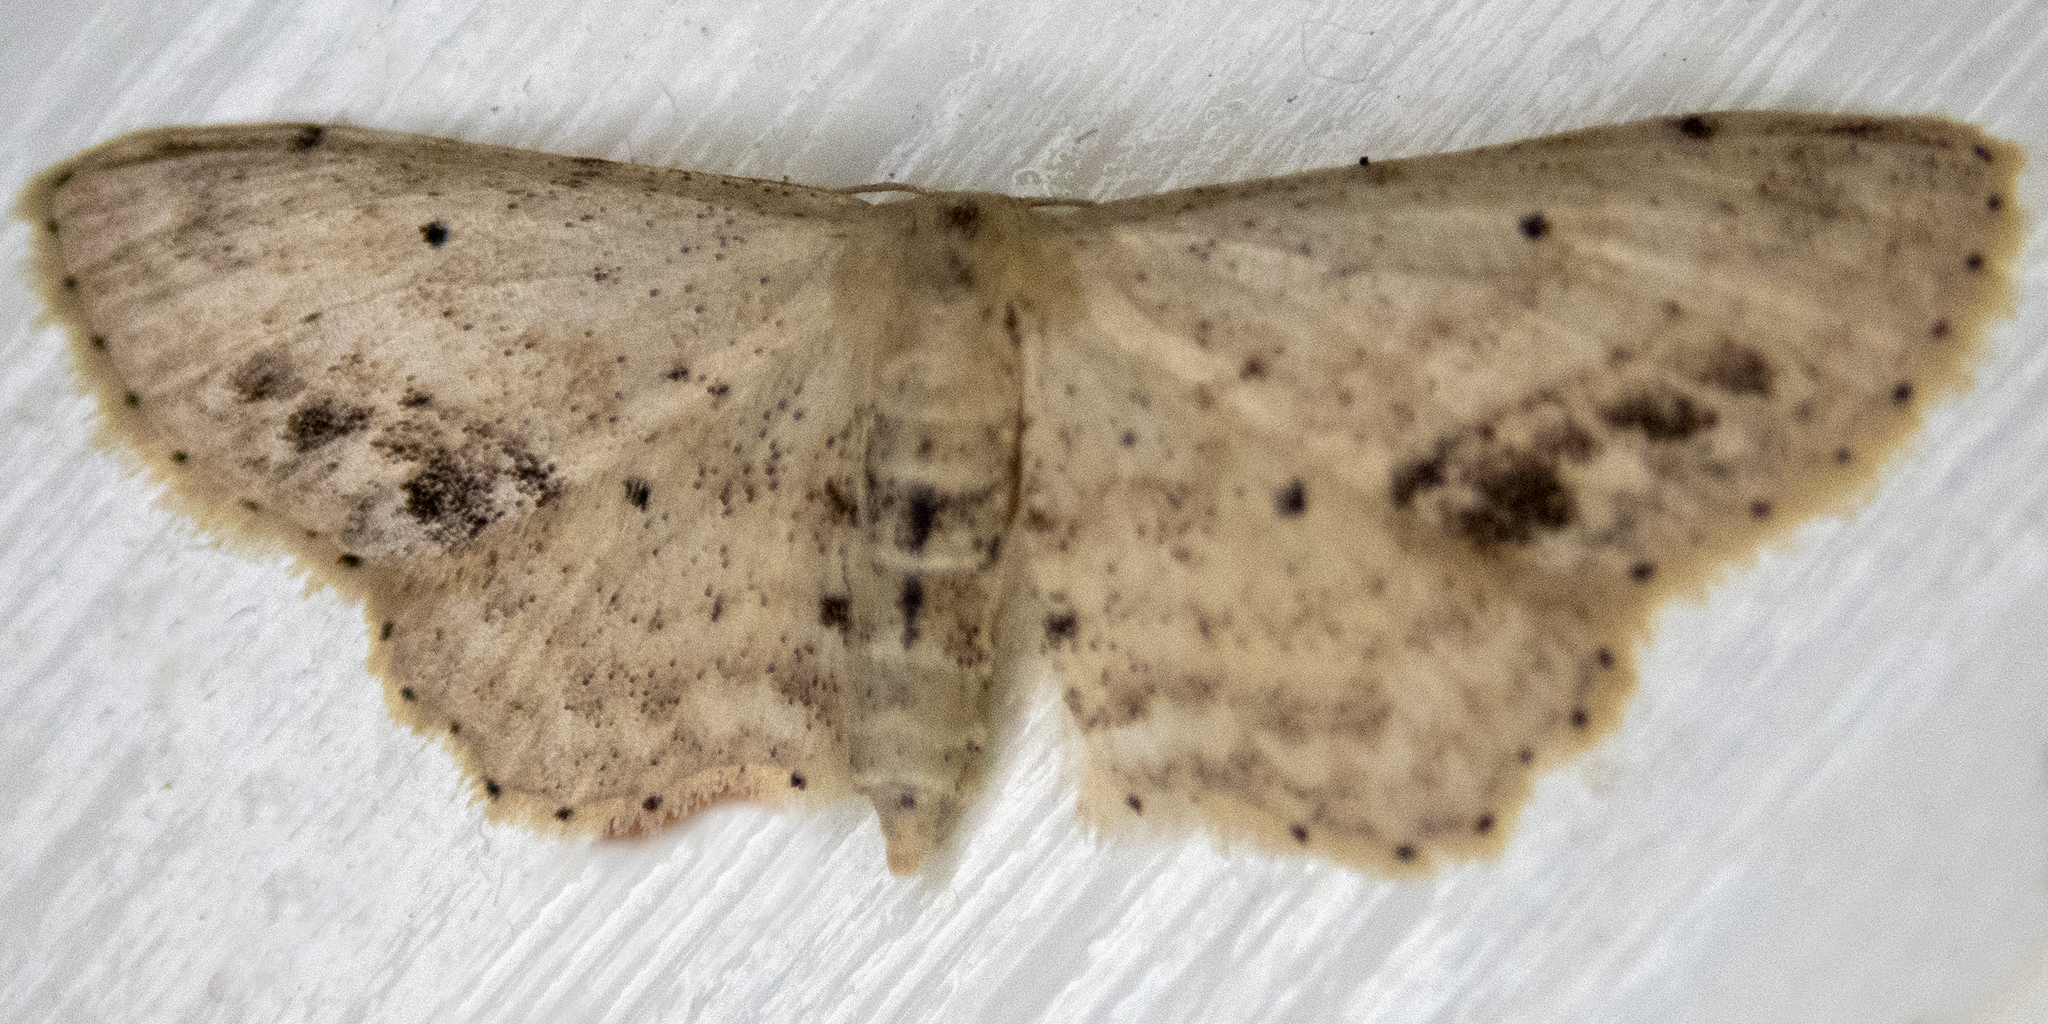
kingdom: Animalia
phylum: Arthropoda
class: Insecta
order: Lepidoptera
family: Geometridae
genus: Idaea
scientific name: Idaea dimidiata
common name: Single-dotted wave
